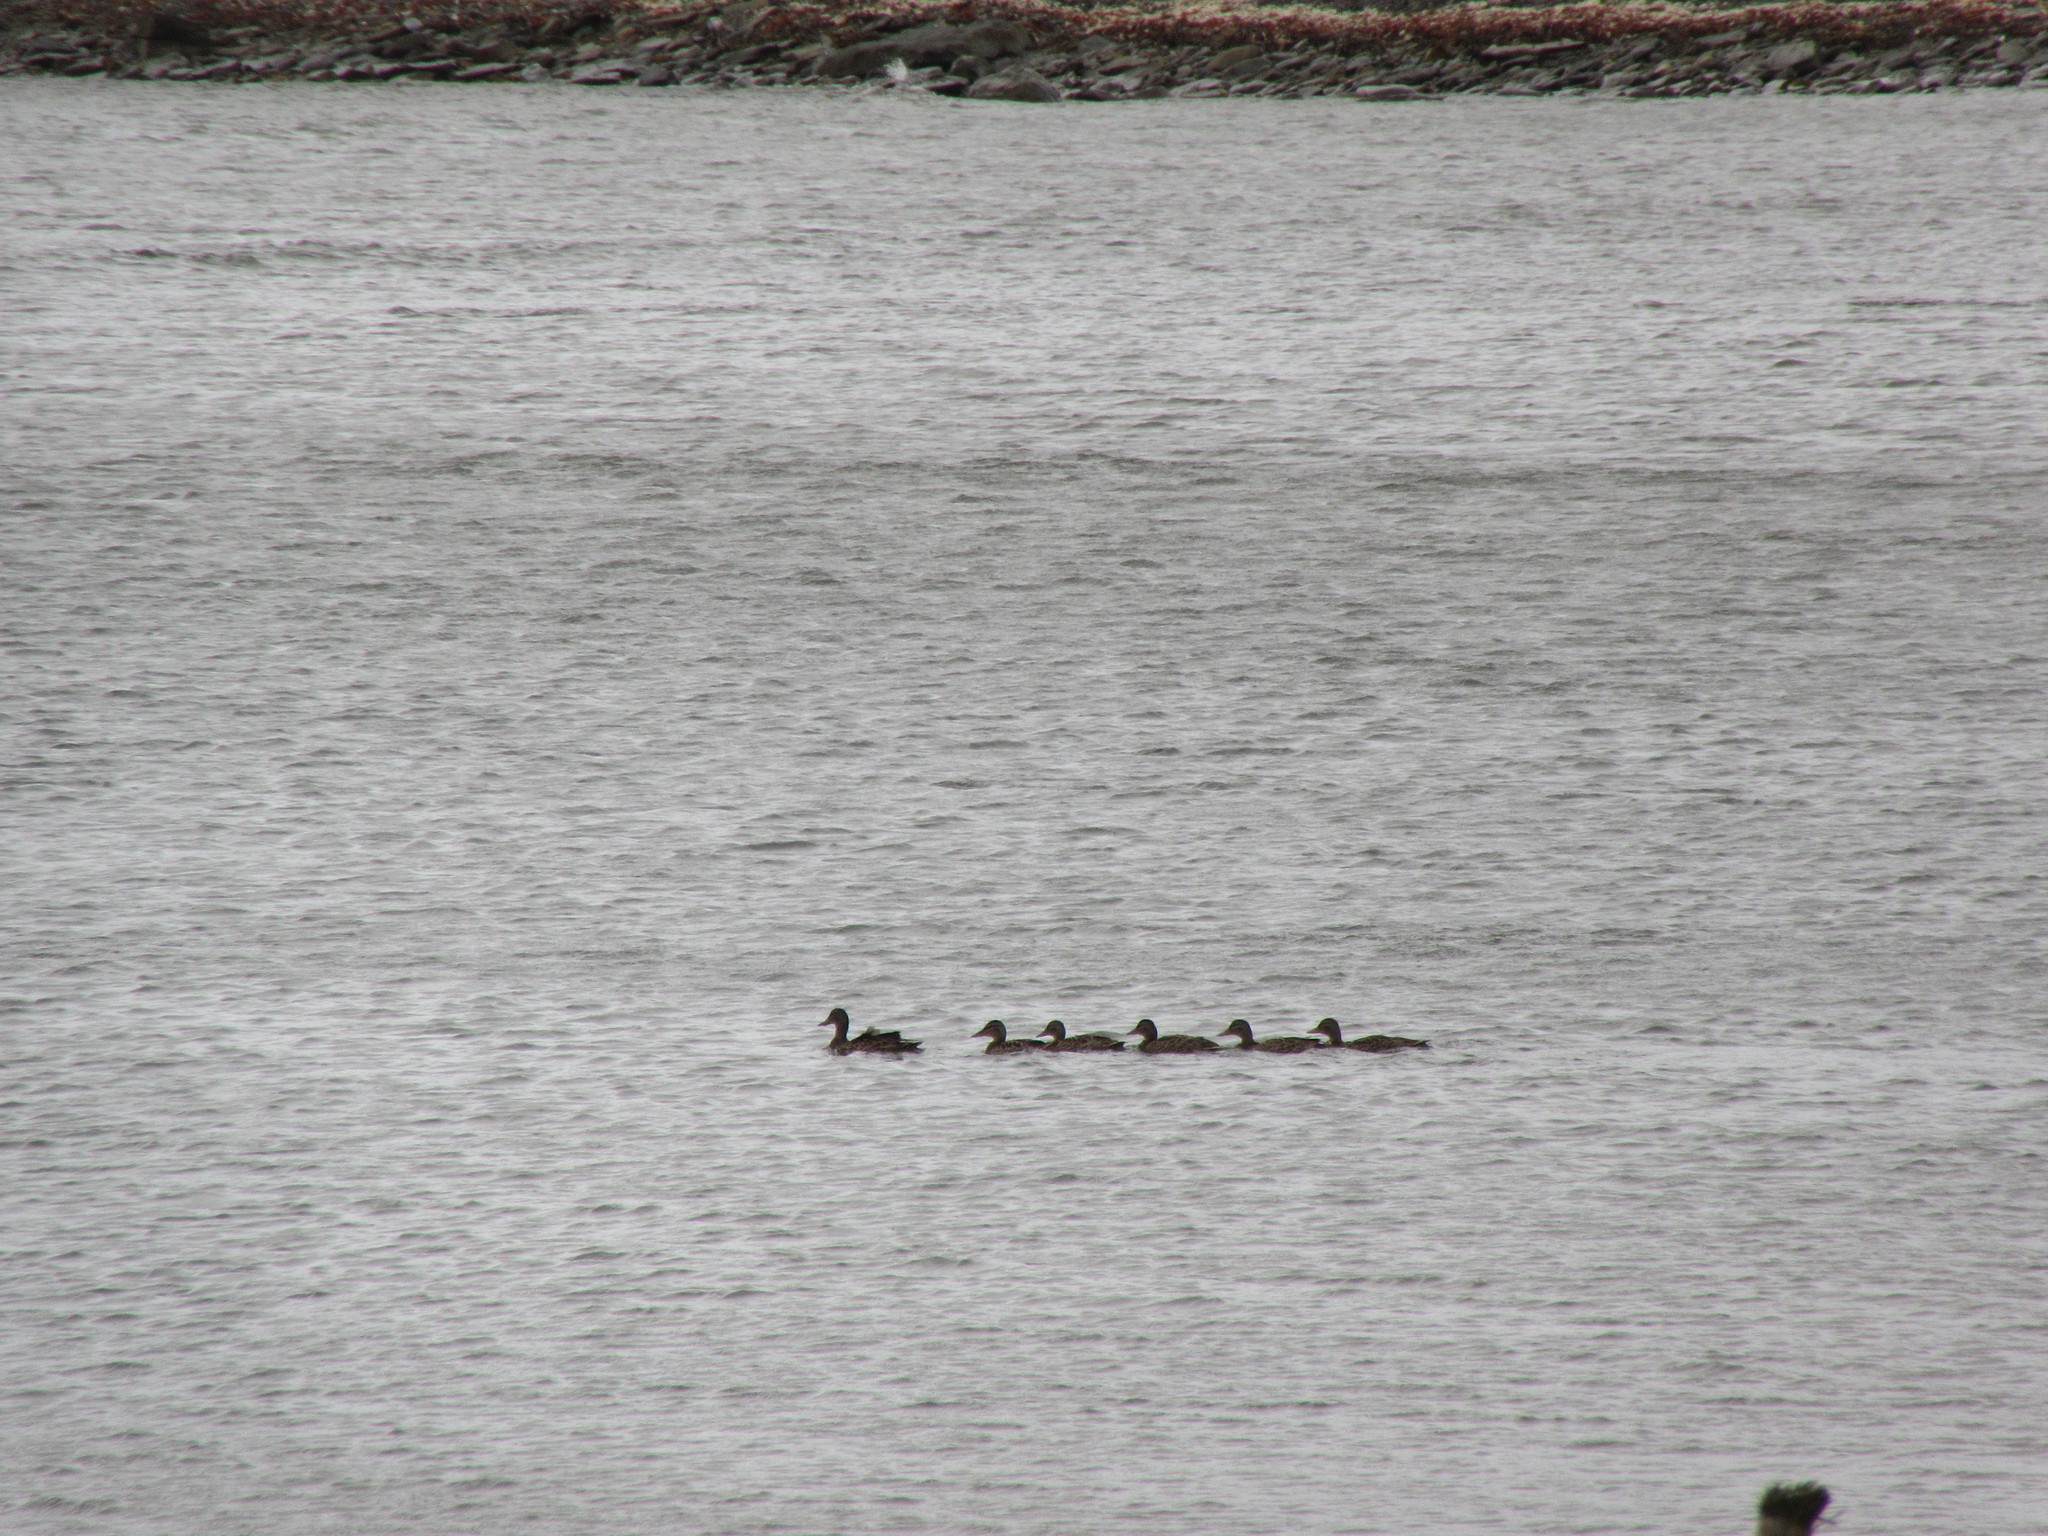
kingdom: Animalia
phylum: Chordata
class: Aves
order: Anseriformes
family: Anatidae
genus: Anas
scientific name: Anas platyrhynchos
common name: Mallard
